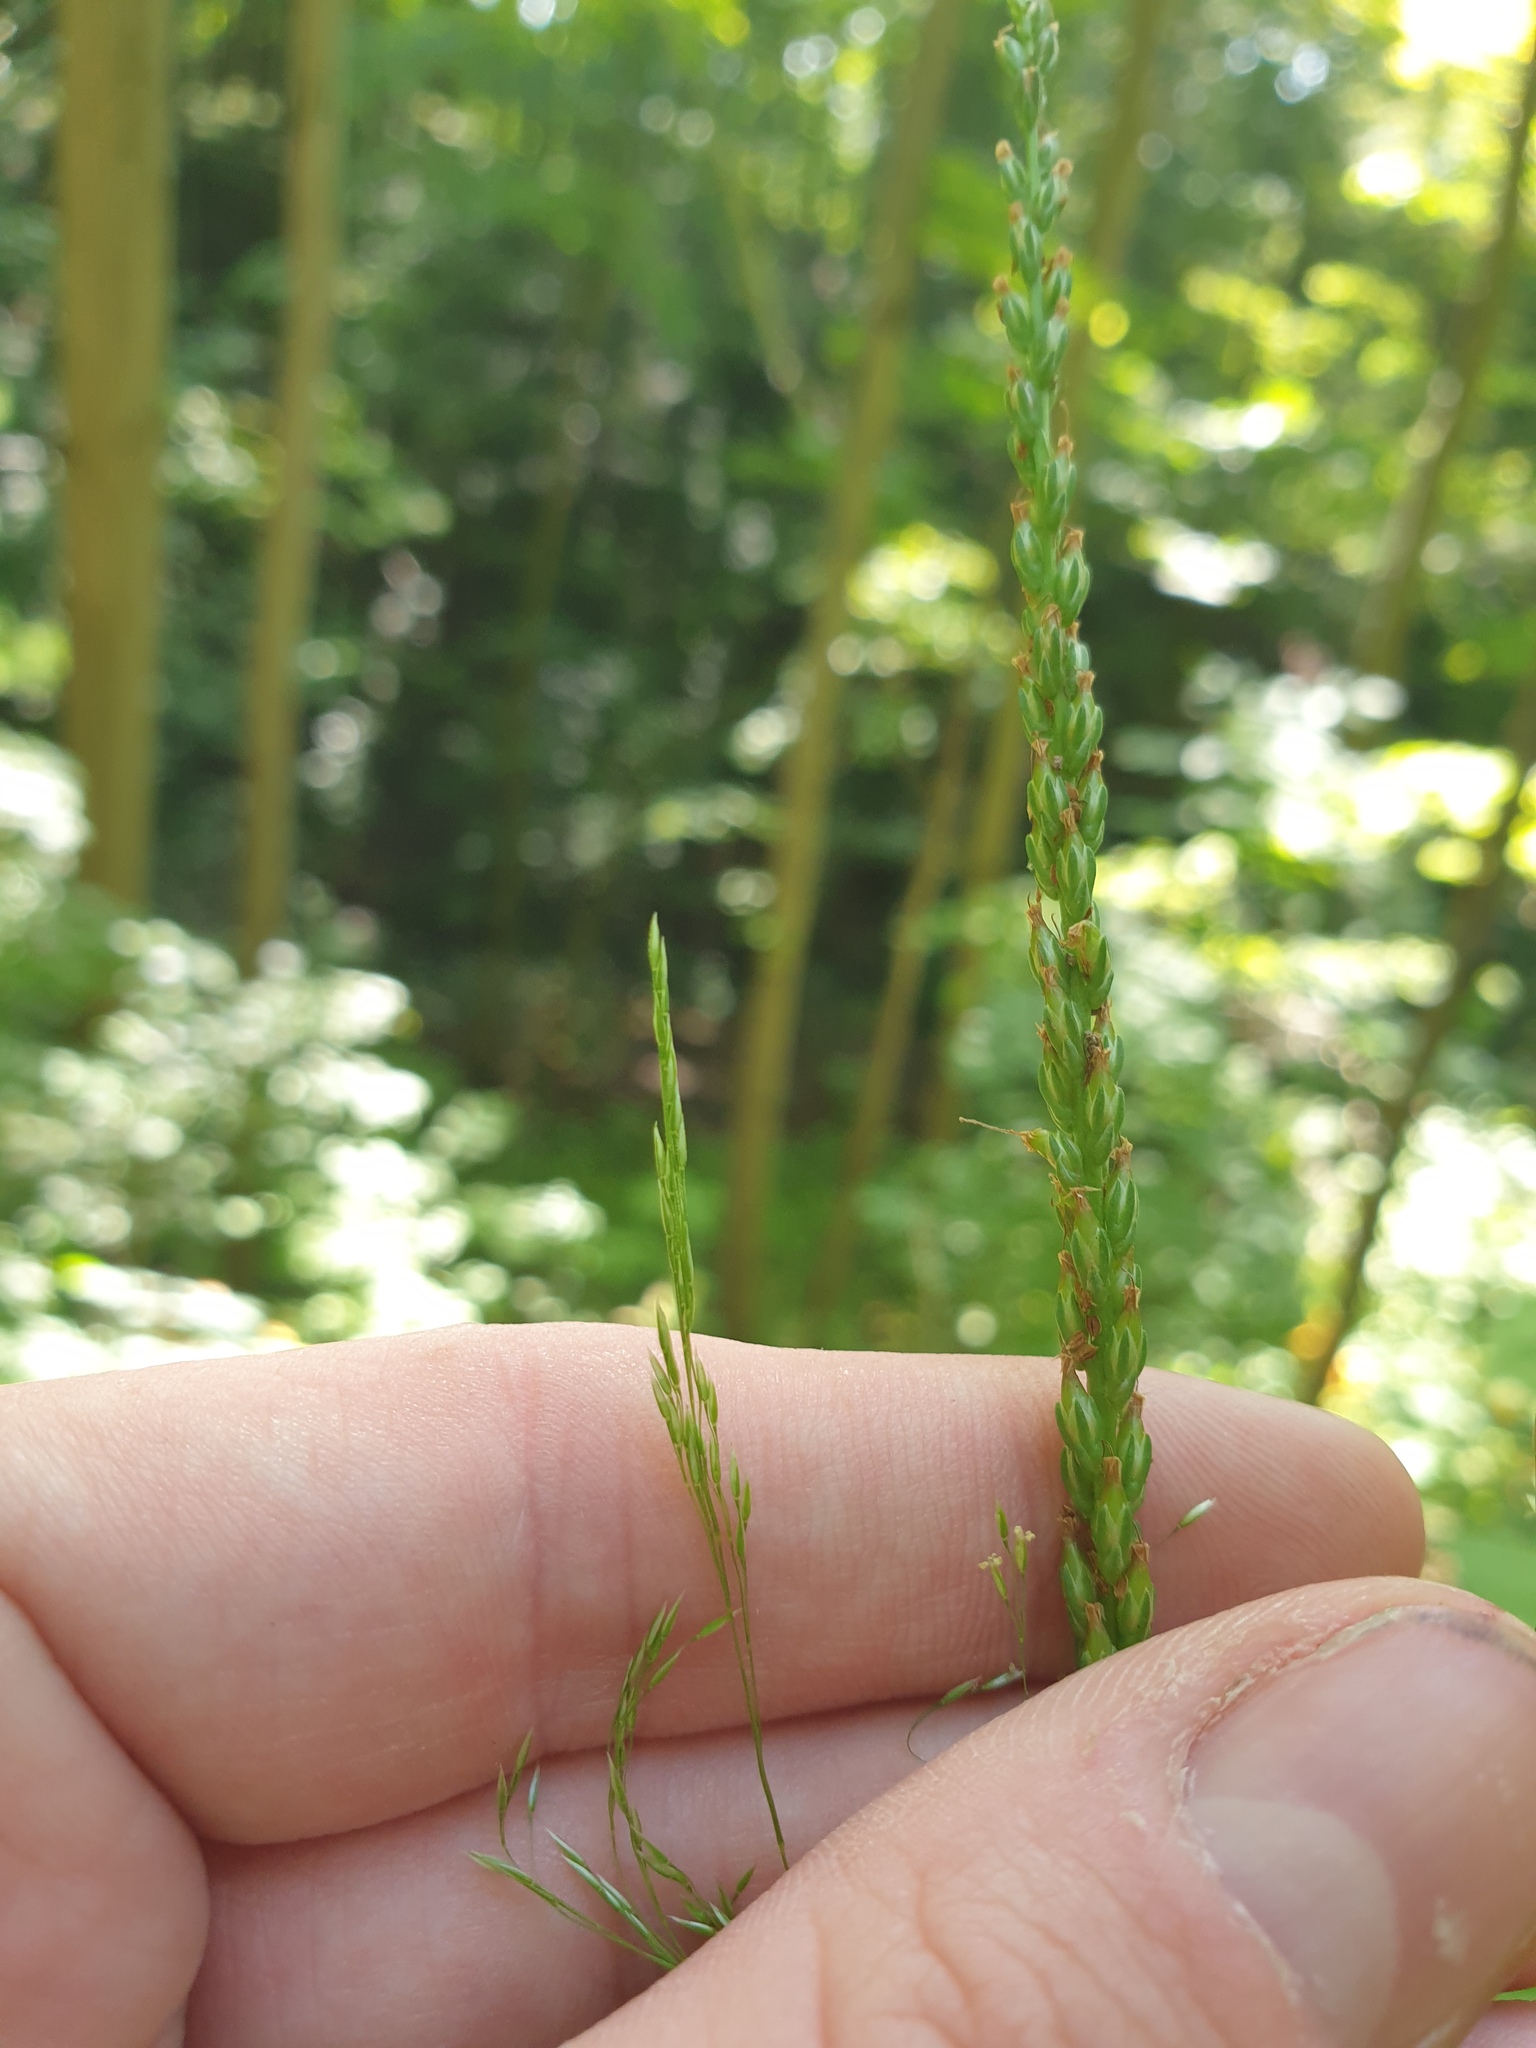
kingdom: Plantae
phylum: Tracheophyta
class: Magnoliopsida
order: Lamiales
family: Plantaginaceae
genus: Plantago
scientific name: Plantago rugelii
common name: American plantain
